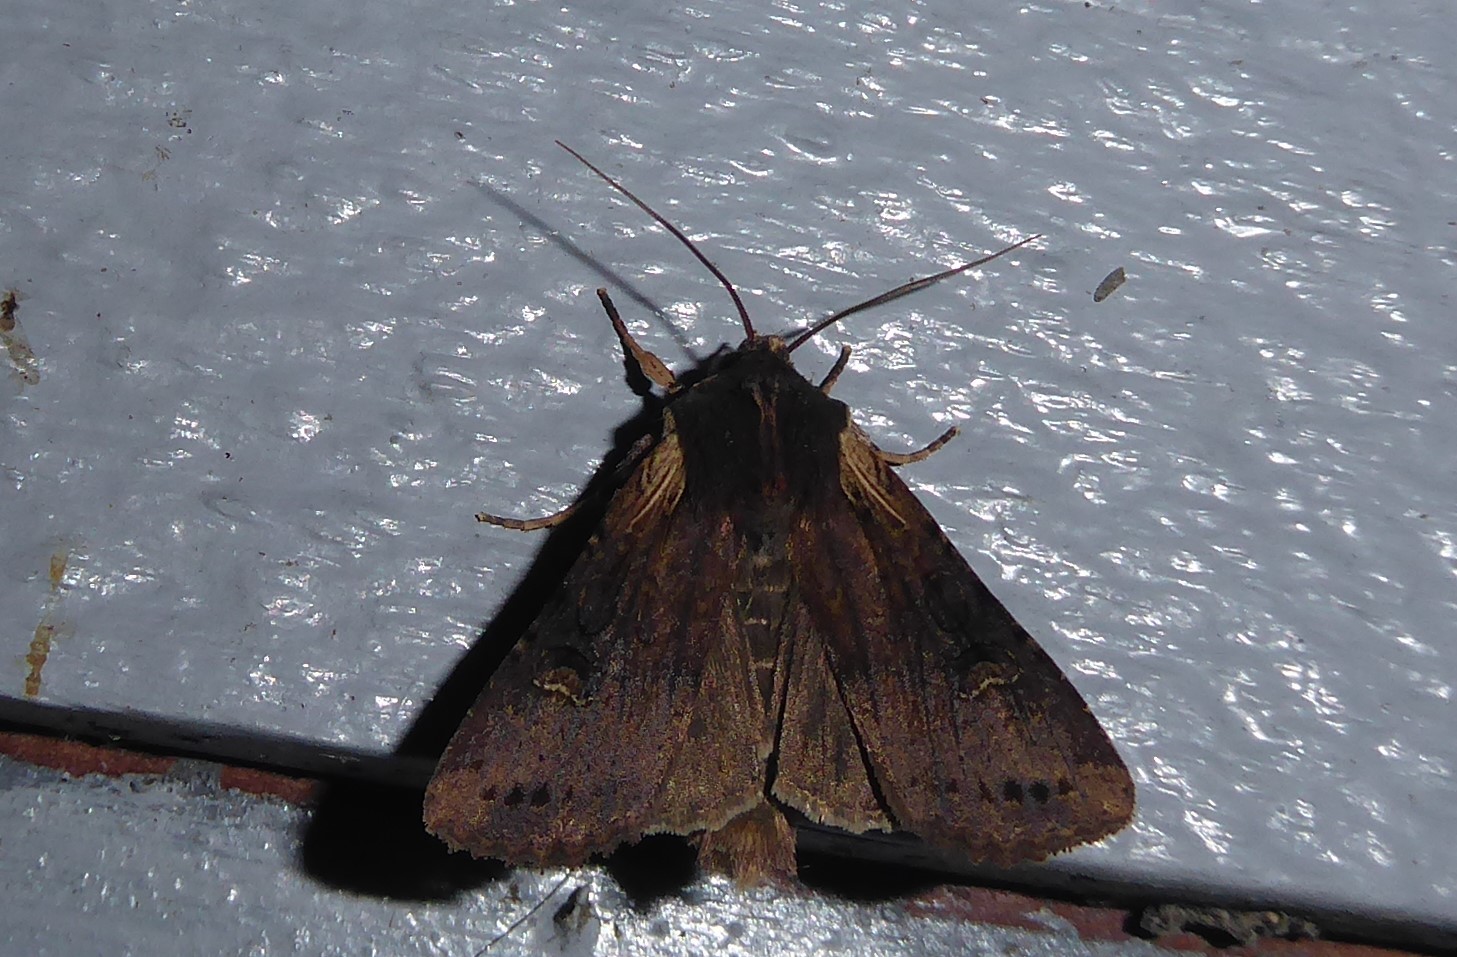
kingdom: Animalia
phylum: Arthropoda
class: Insecta
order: Lepidoptera
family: Noctuidae
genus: Ichneutica
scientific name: Ichneutica omoplaca
